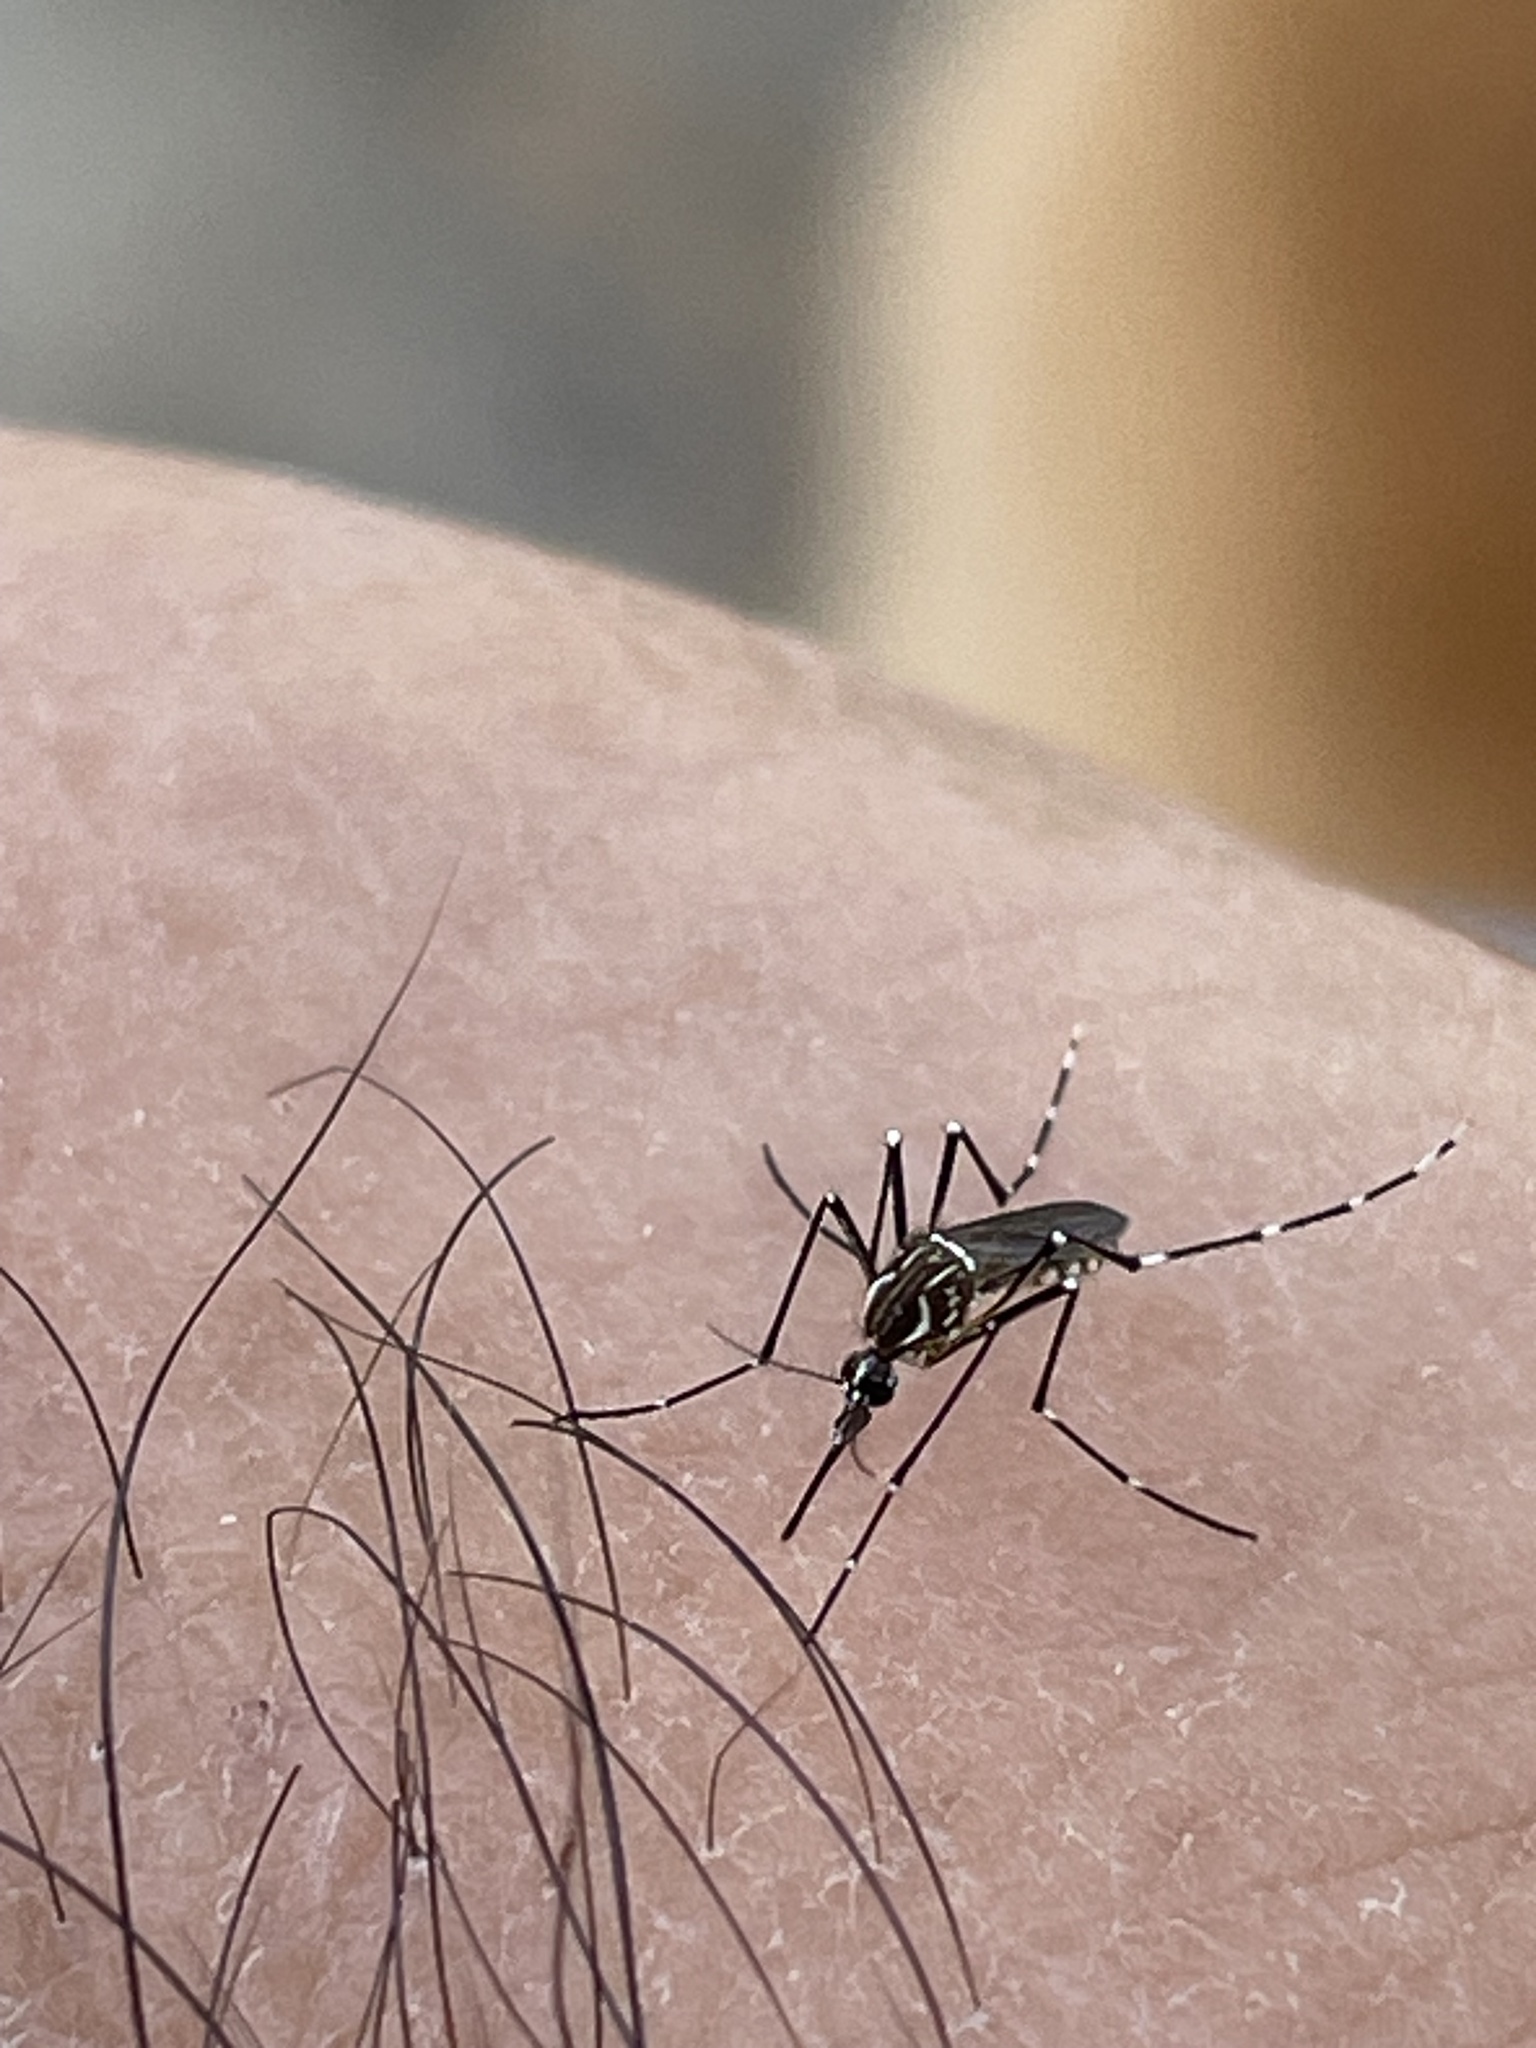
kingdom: Animalia
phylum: Arthropoda
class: Insecta
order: Diptera
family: Culicidae
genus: Aedes
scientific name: Aedes aegypti
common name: Yellow fever mosquito
